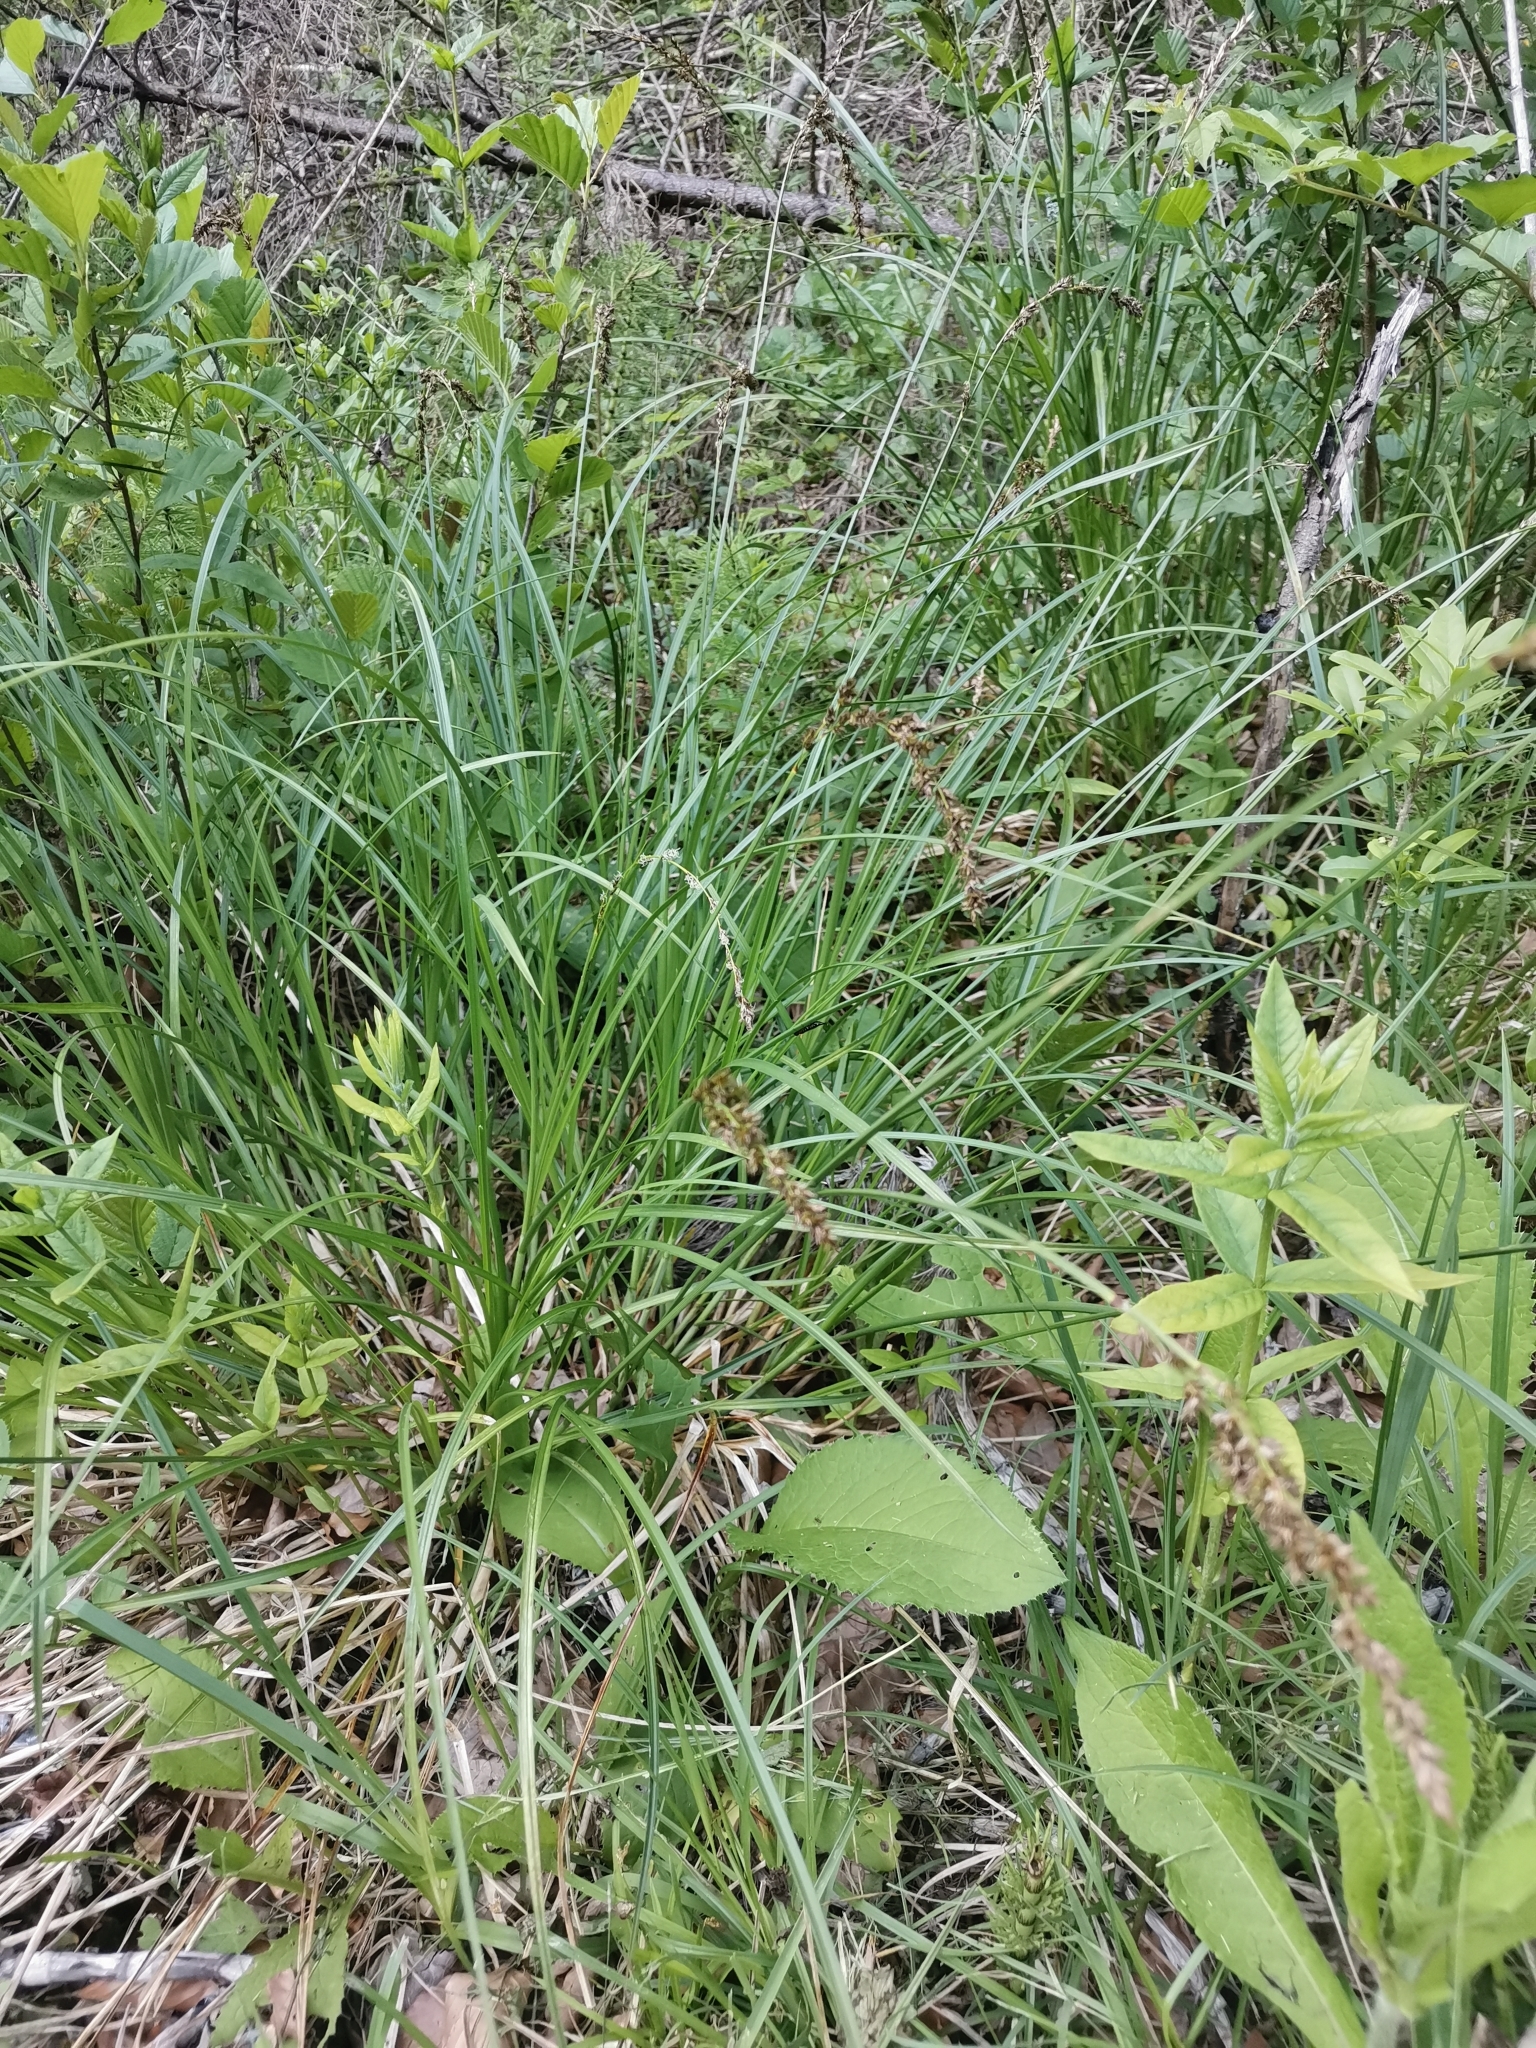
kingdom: Plantae
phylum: Tracheophyta
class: Liliopsida
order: Poales
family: Cyperaceae
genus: Carex
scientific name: Carex paniculata
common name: Greater tussock-sedge
